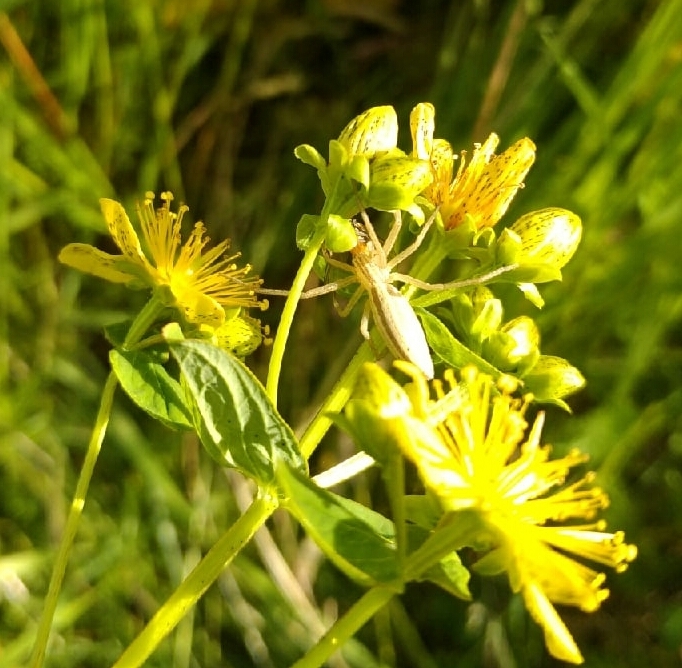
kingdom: Animalia
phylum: Arthropoda
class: Arachnida
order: Araneae
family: Philodromidae
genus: Tibellus
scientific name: Tibellus oblongus
